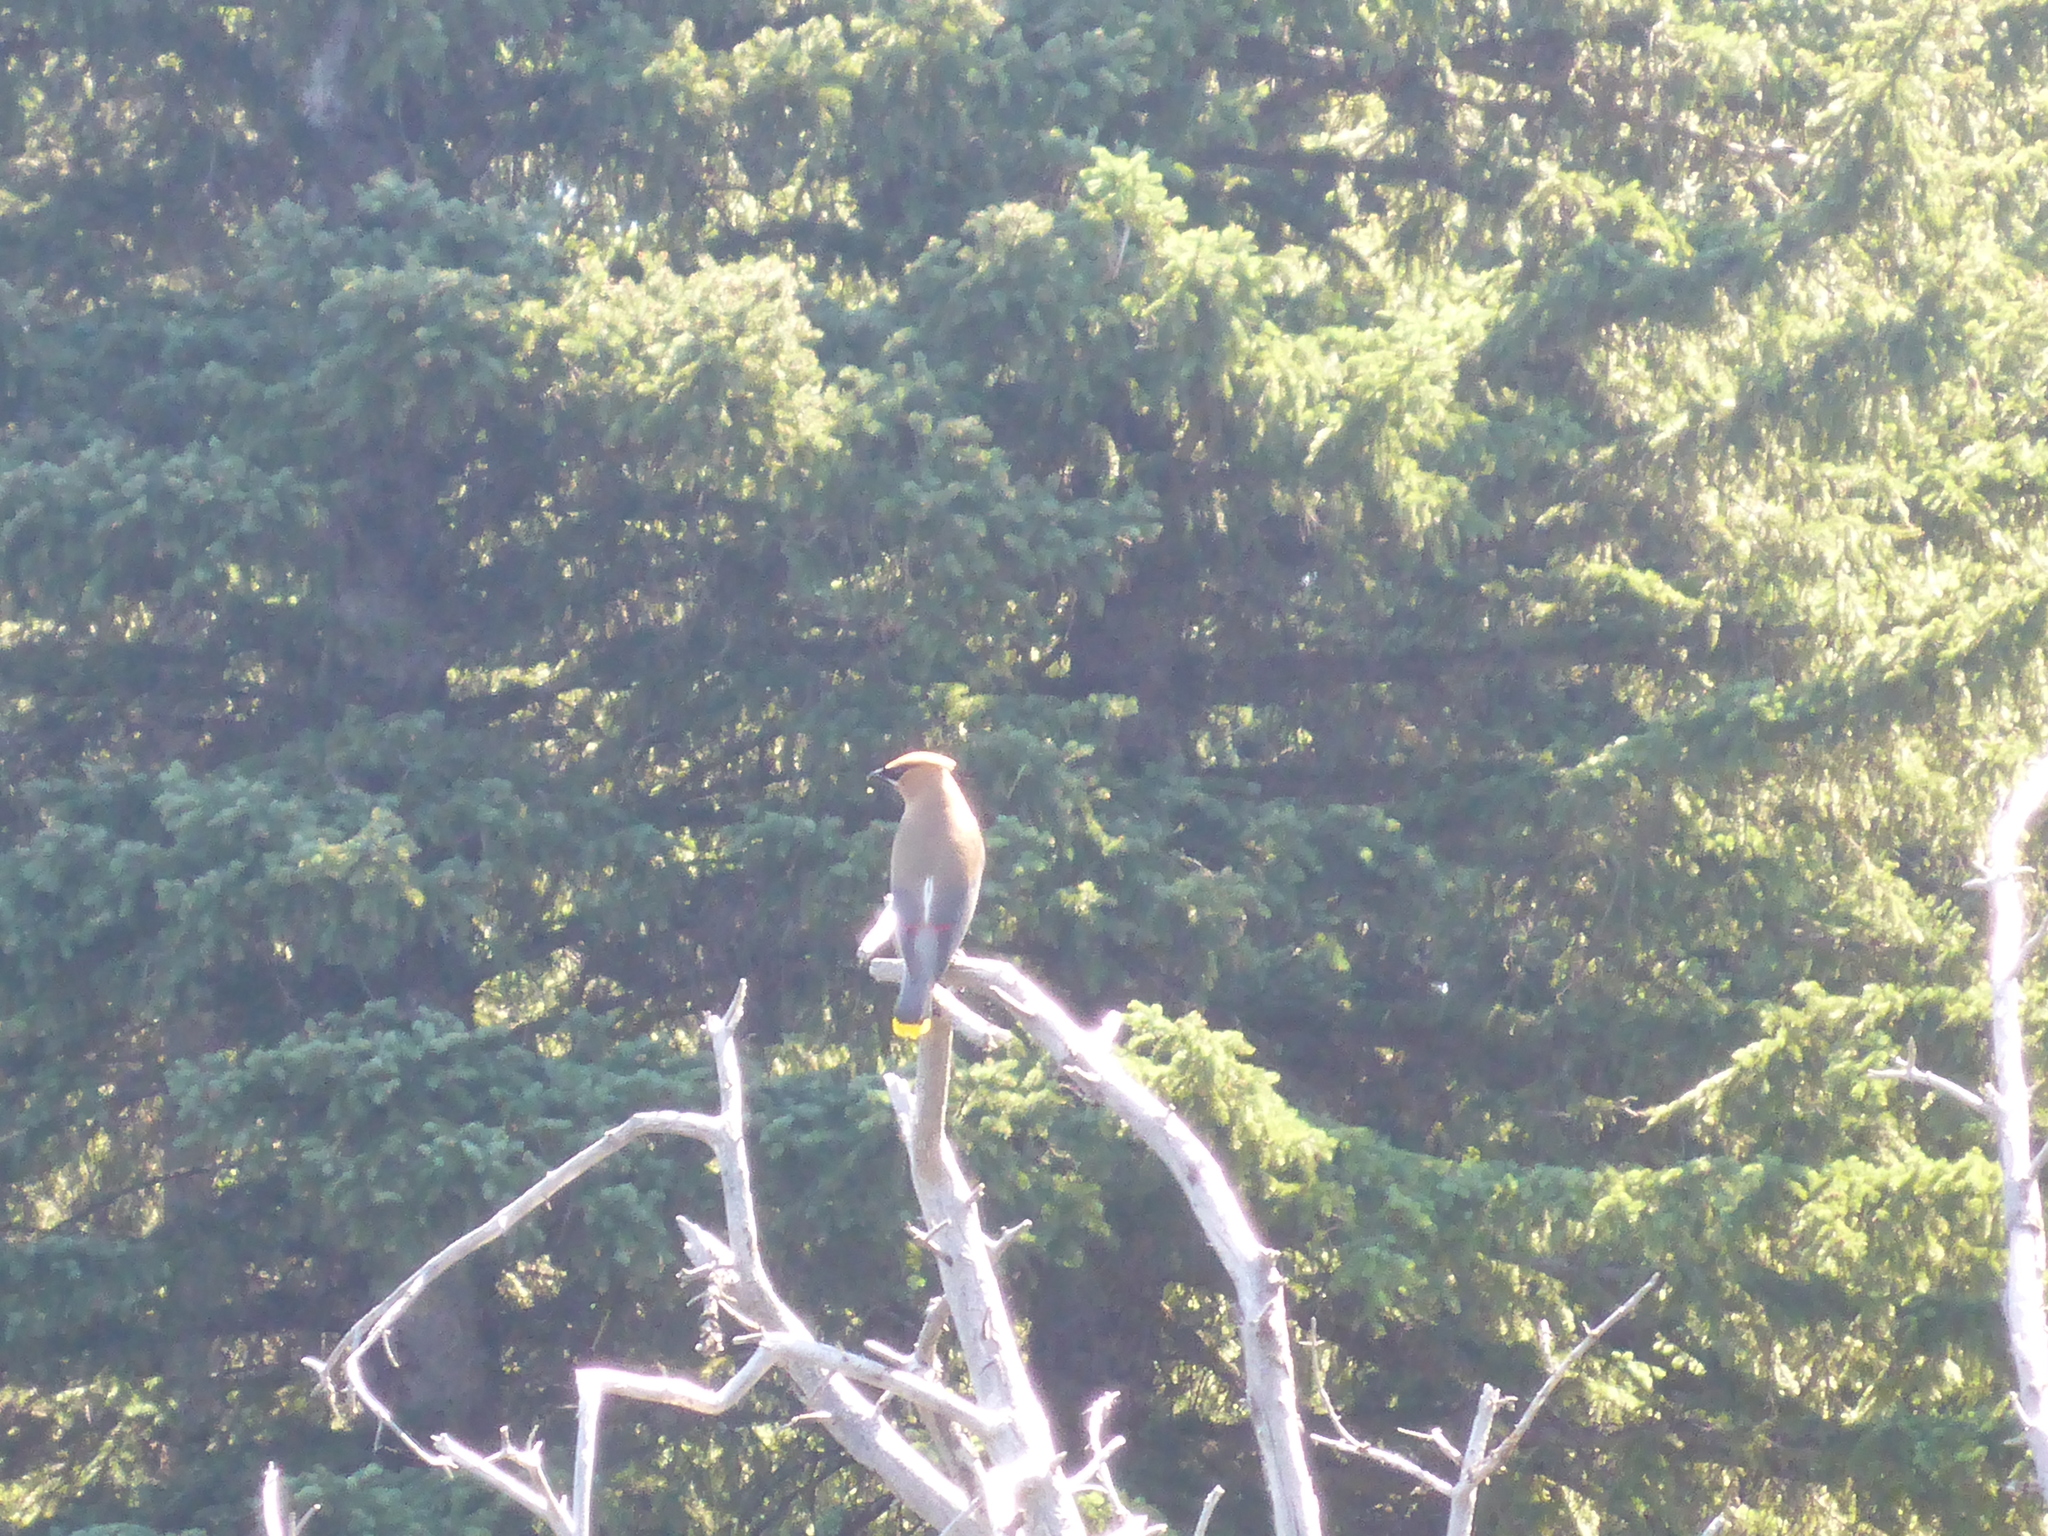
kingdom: Animalia
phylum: Chordata
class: Aves
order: Passeriformes
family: Bombycillidae
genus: Bombycilla
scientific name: Bombycilla cedrorum
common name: Cedar waxwing
